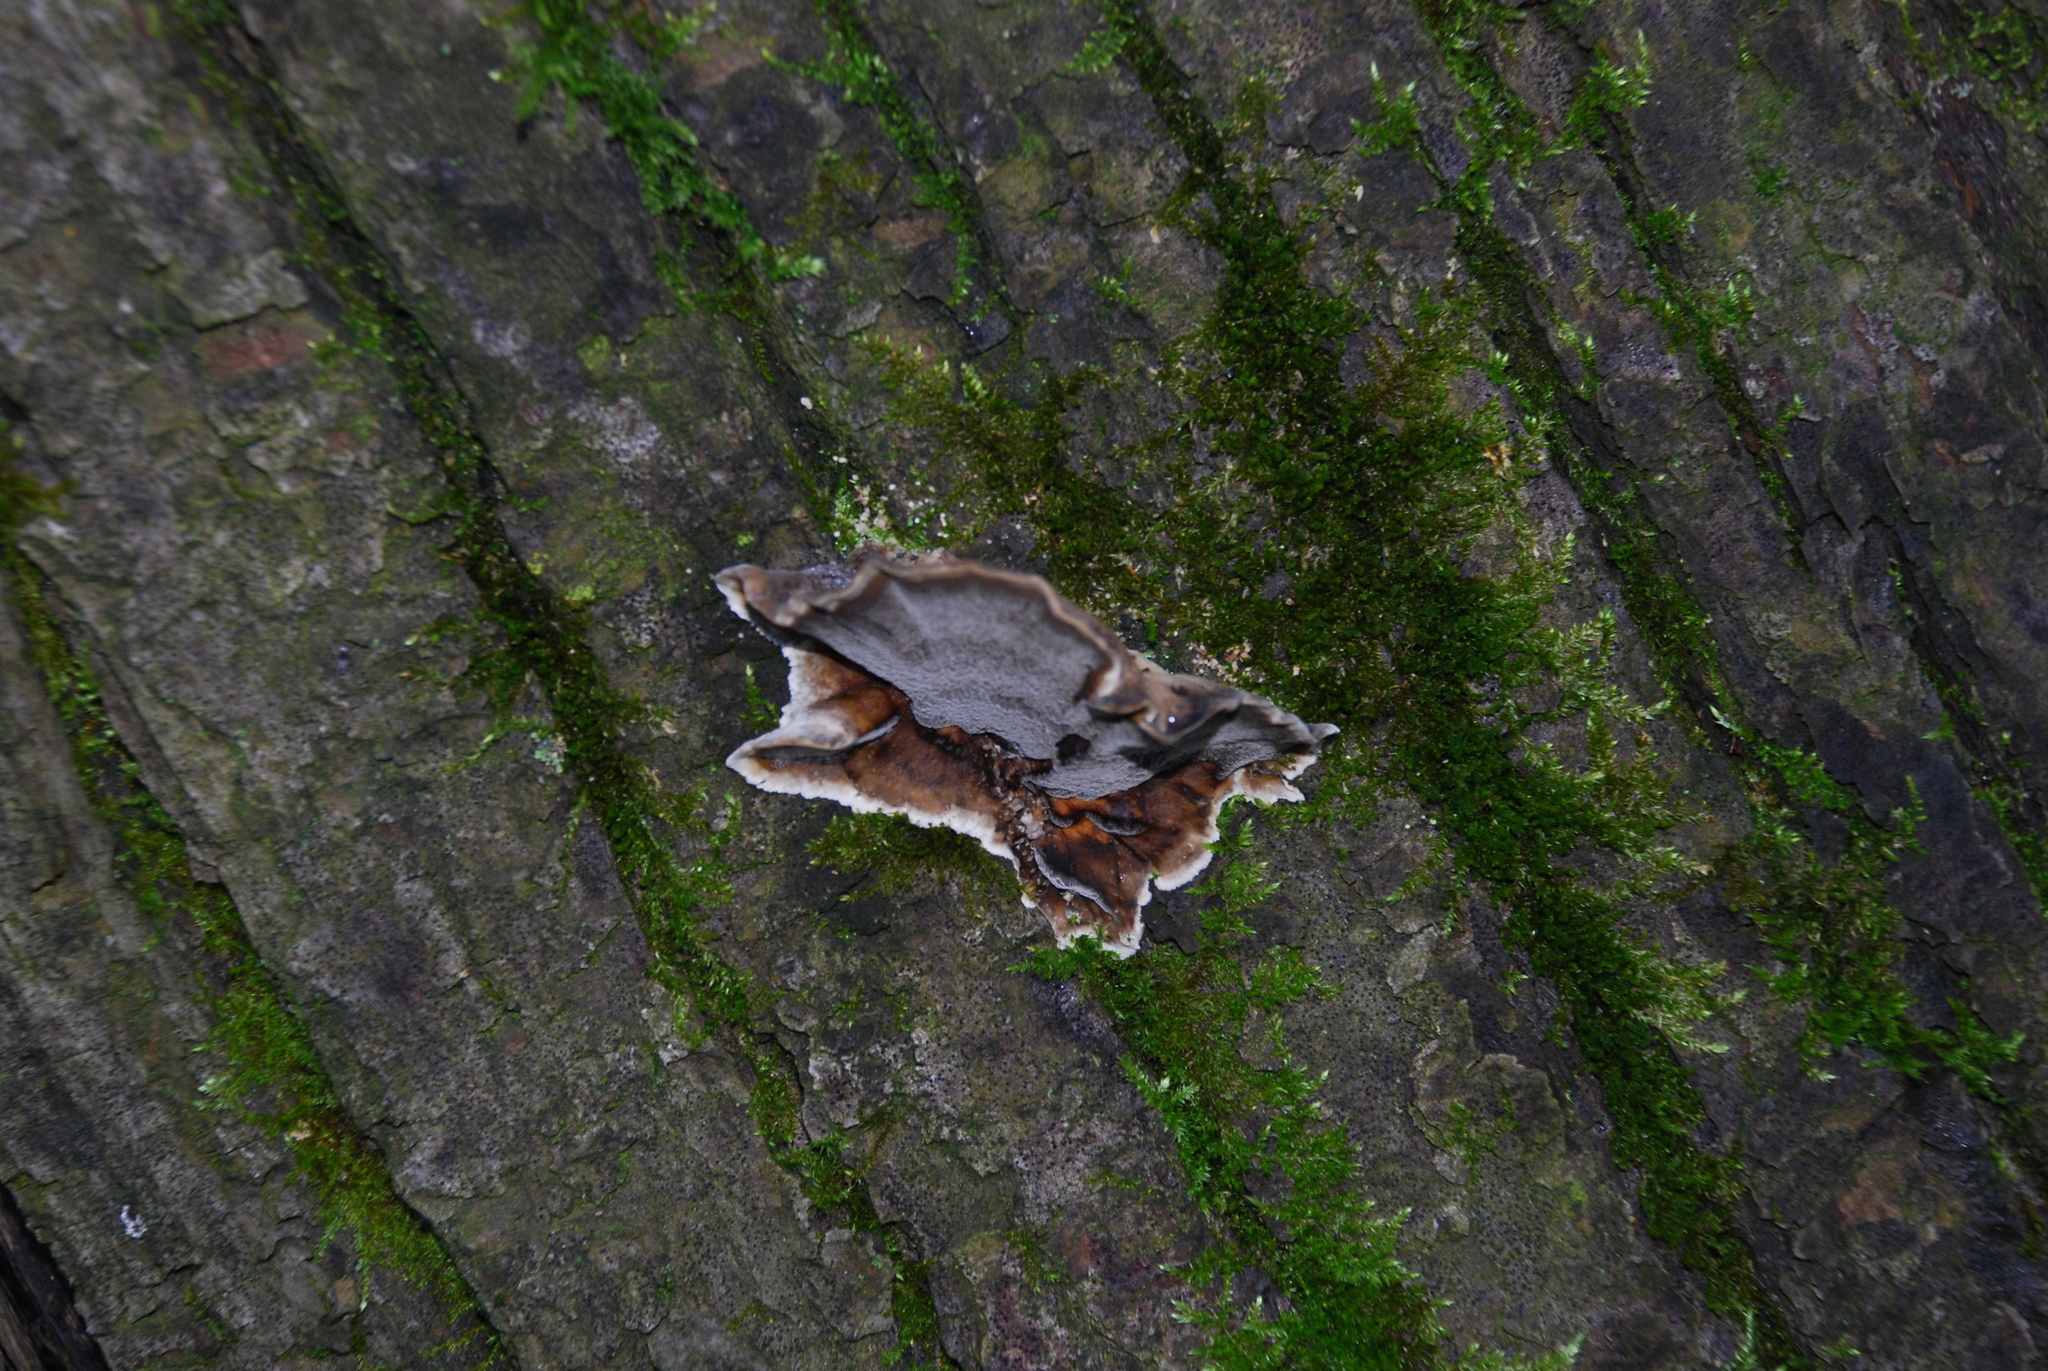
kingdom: Fungi
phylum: Basidiomycota
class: Agaricomycetes
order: Polyporales
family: Phanerochaetaceae
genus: Bjerkandera
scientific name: Bjerkandera adusta
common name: Smoky bracket
